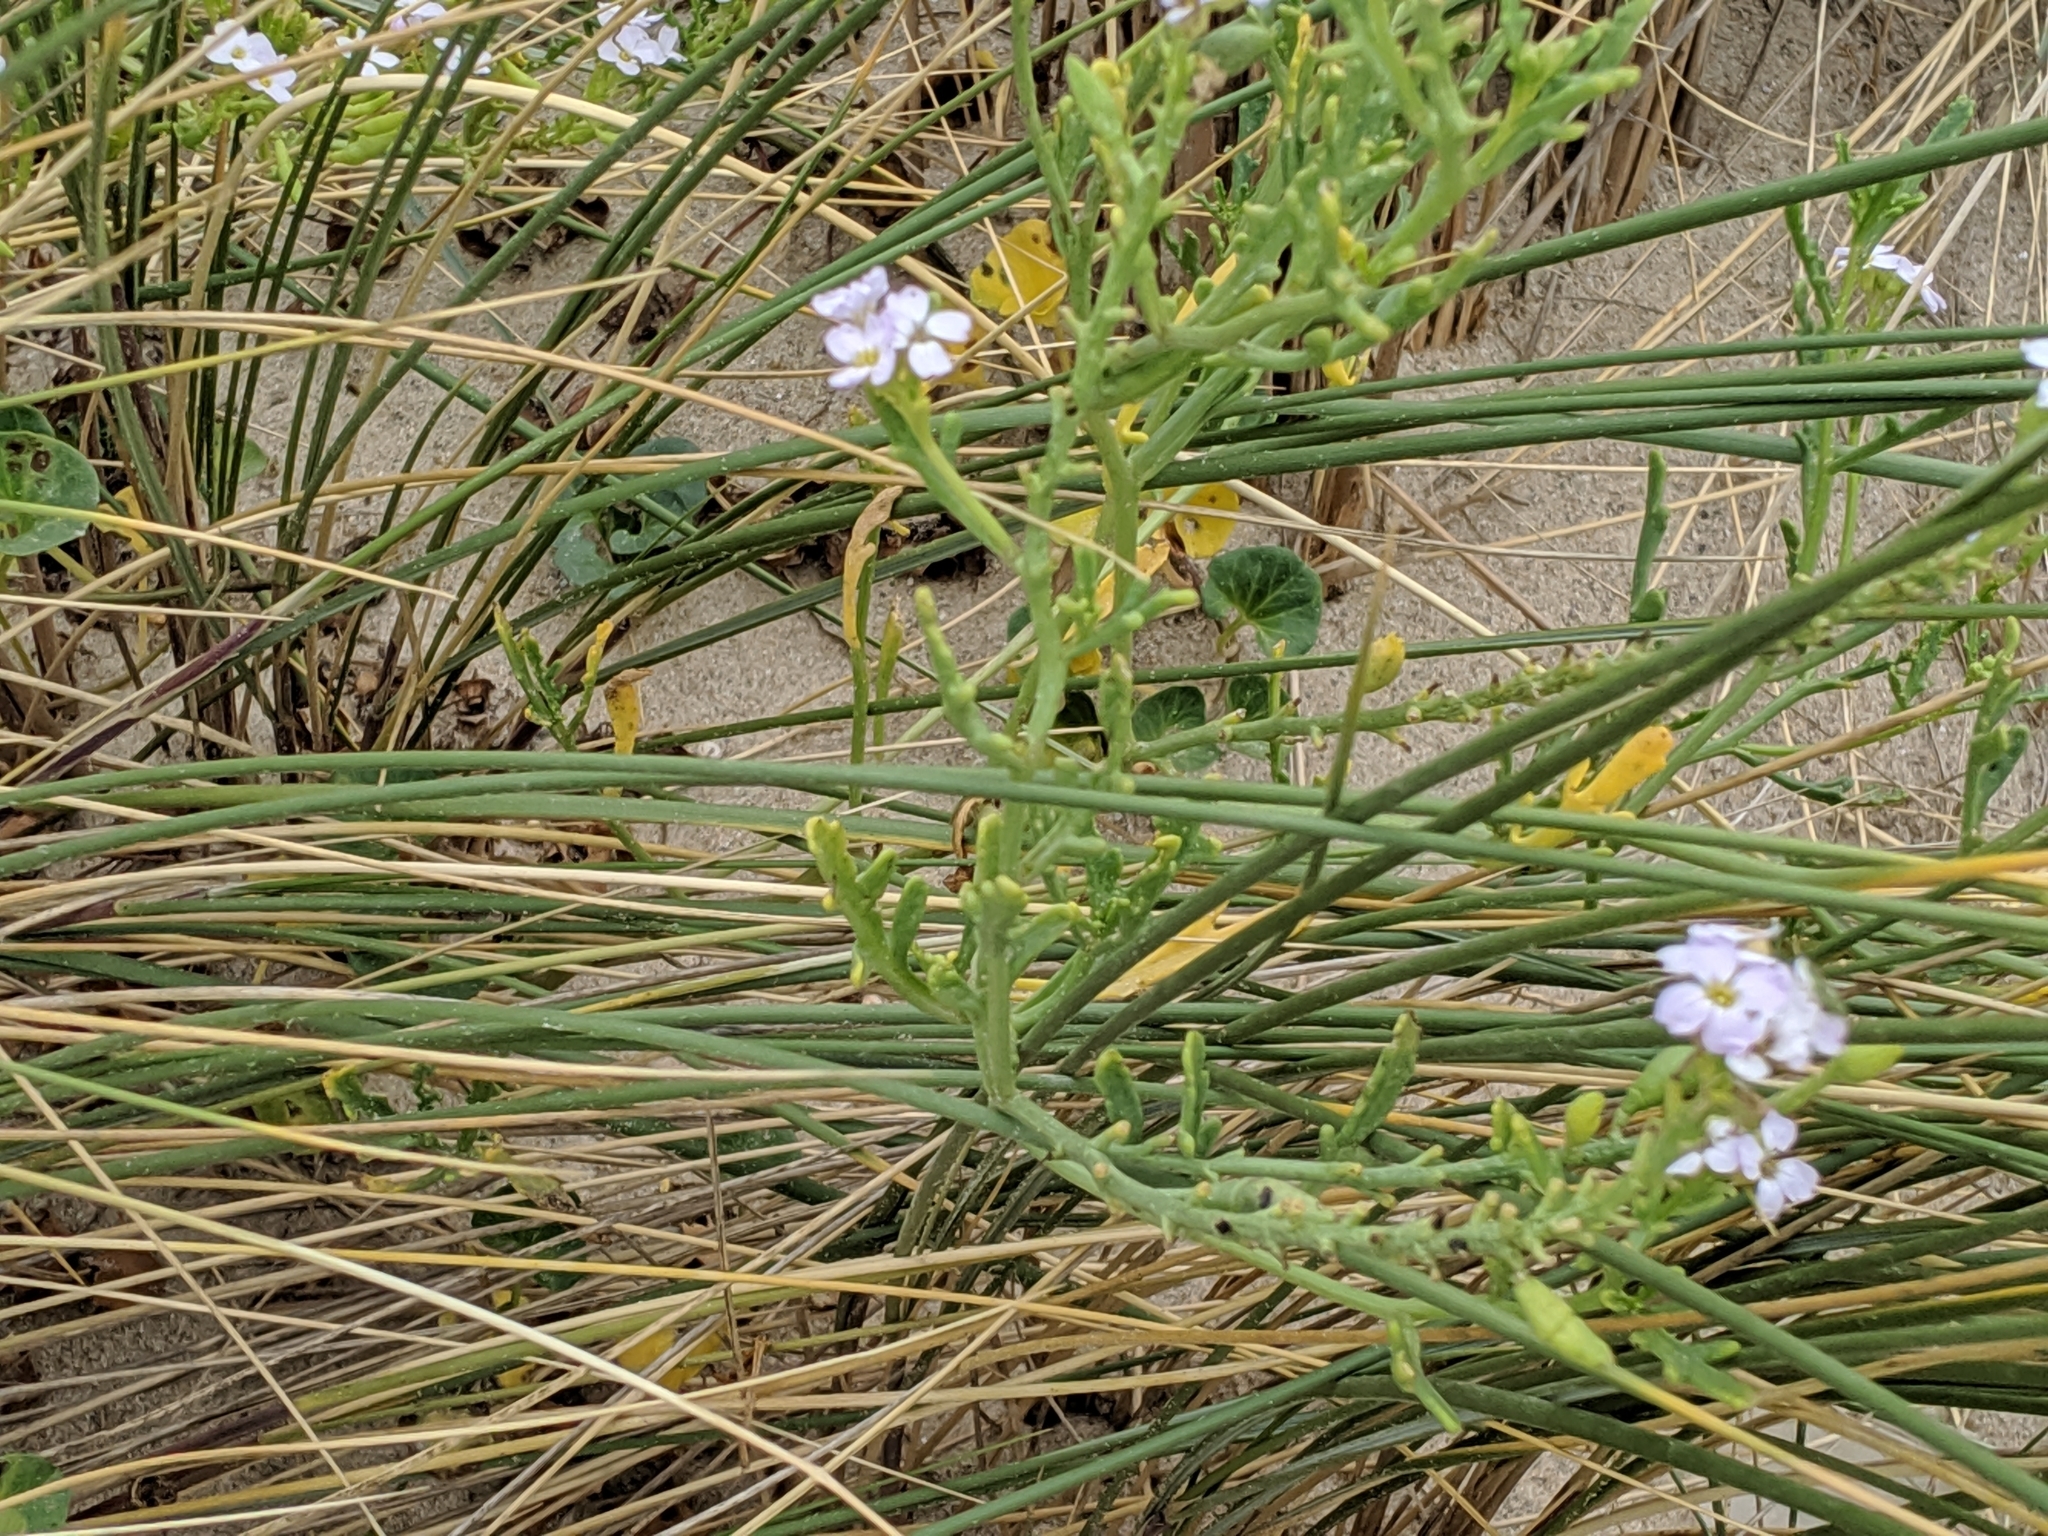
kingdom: Plantae
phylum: Tracheophyta
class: Magnoliopsida
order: Brassicales
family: Brassicaceae
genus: Cakile
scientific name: Cakile maritima
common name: Sea rocket
